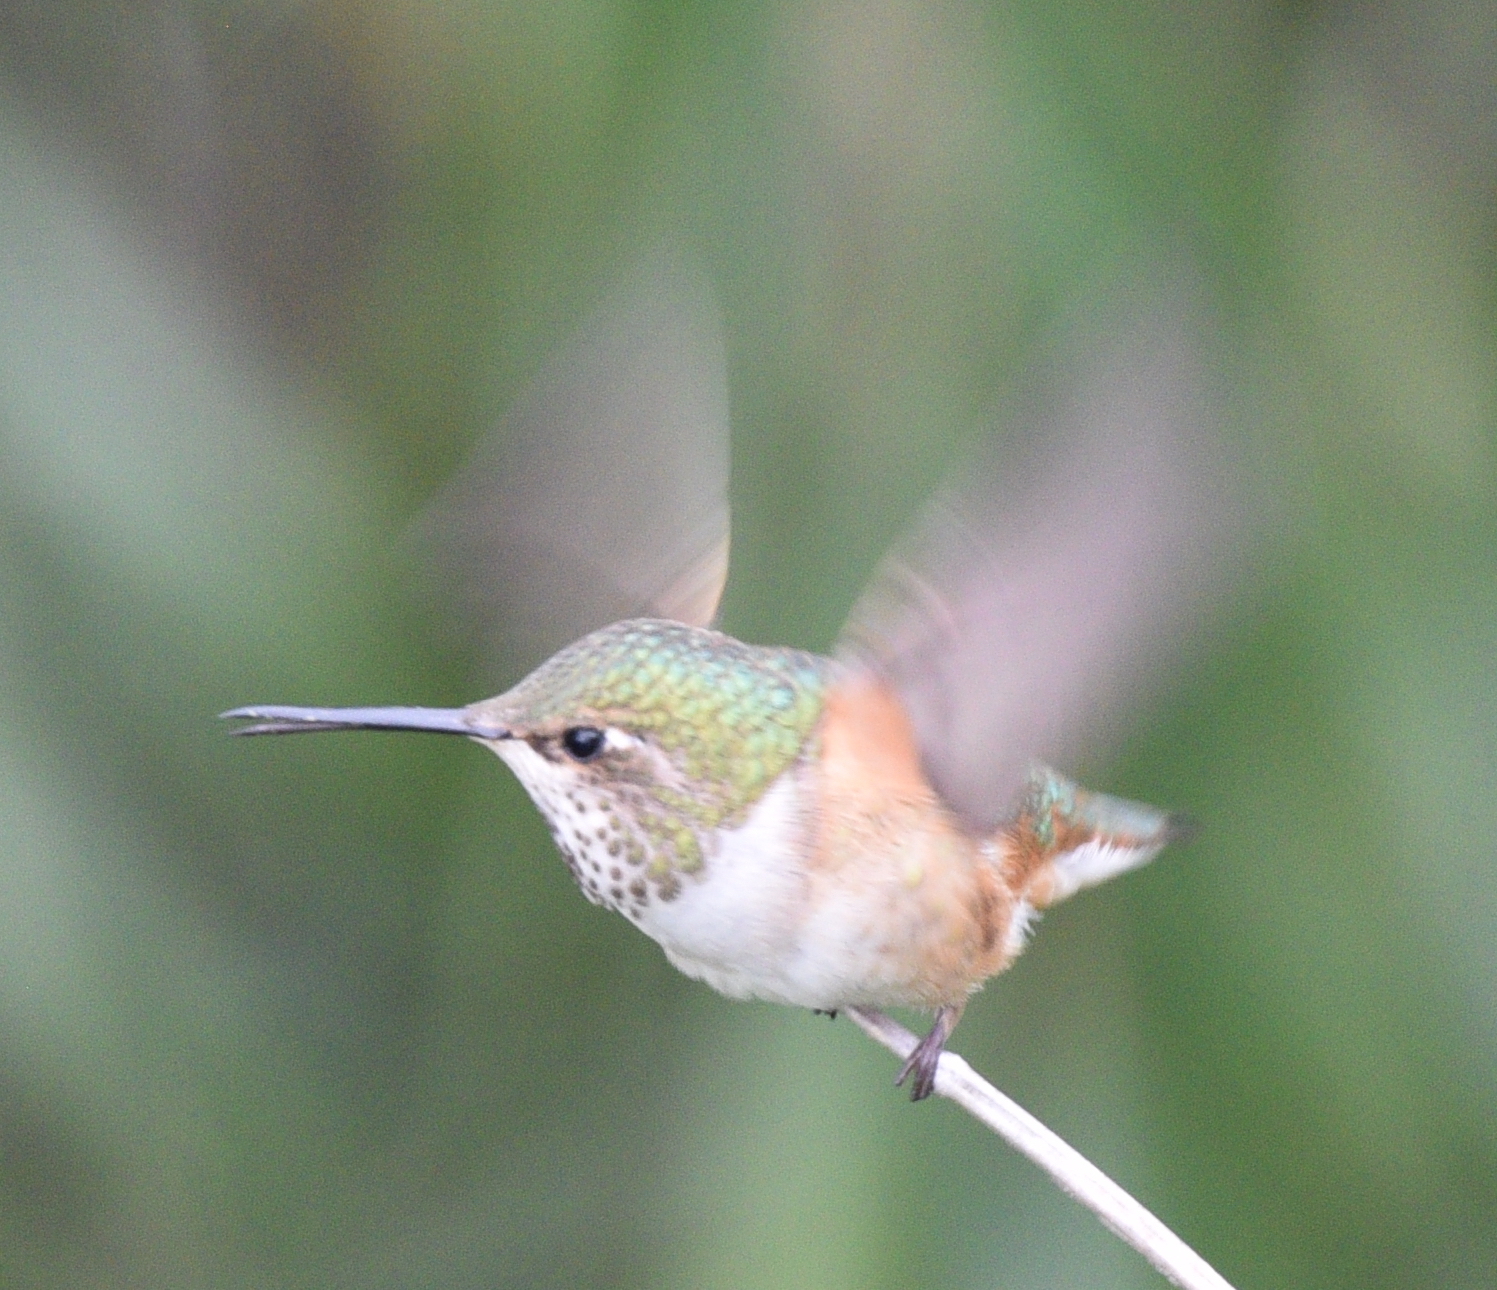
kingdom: Animalia
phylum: Chordata
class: Aves
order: Apodiformes
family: Trochilidae
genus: Selasphorus
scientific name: Selasphorus sasin
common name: Allen's hummingbird
